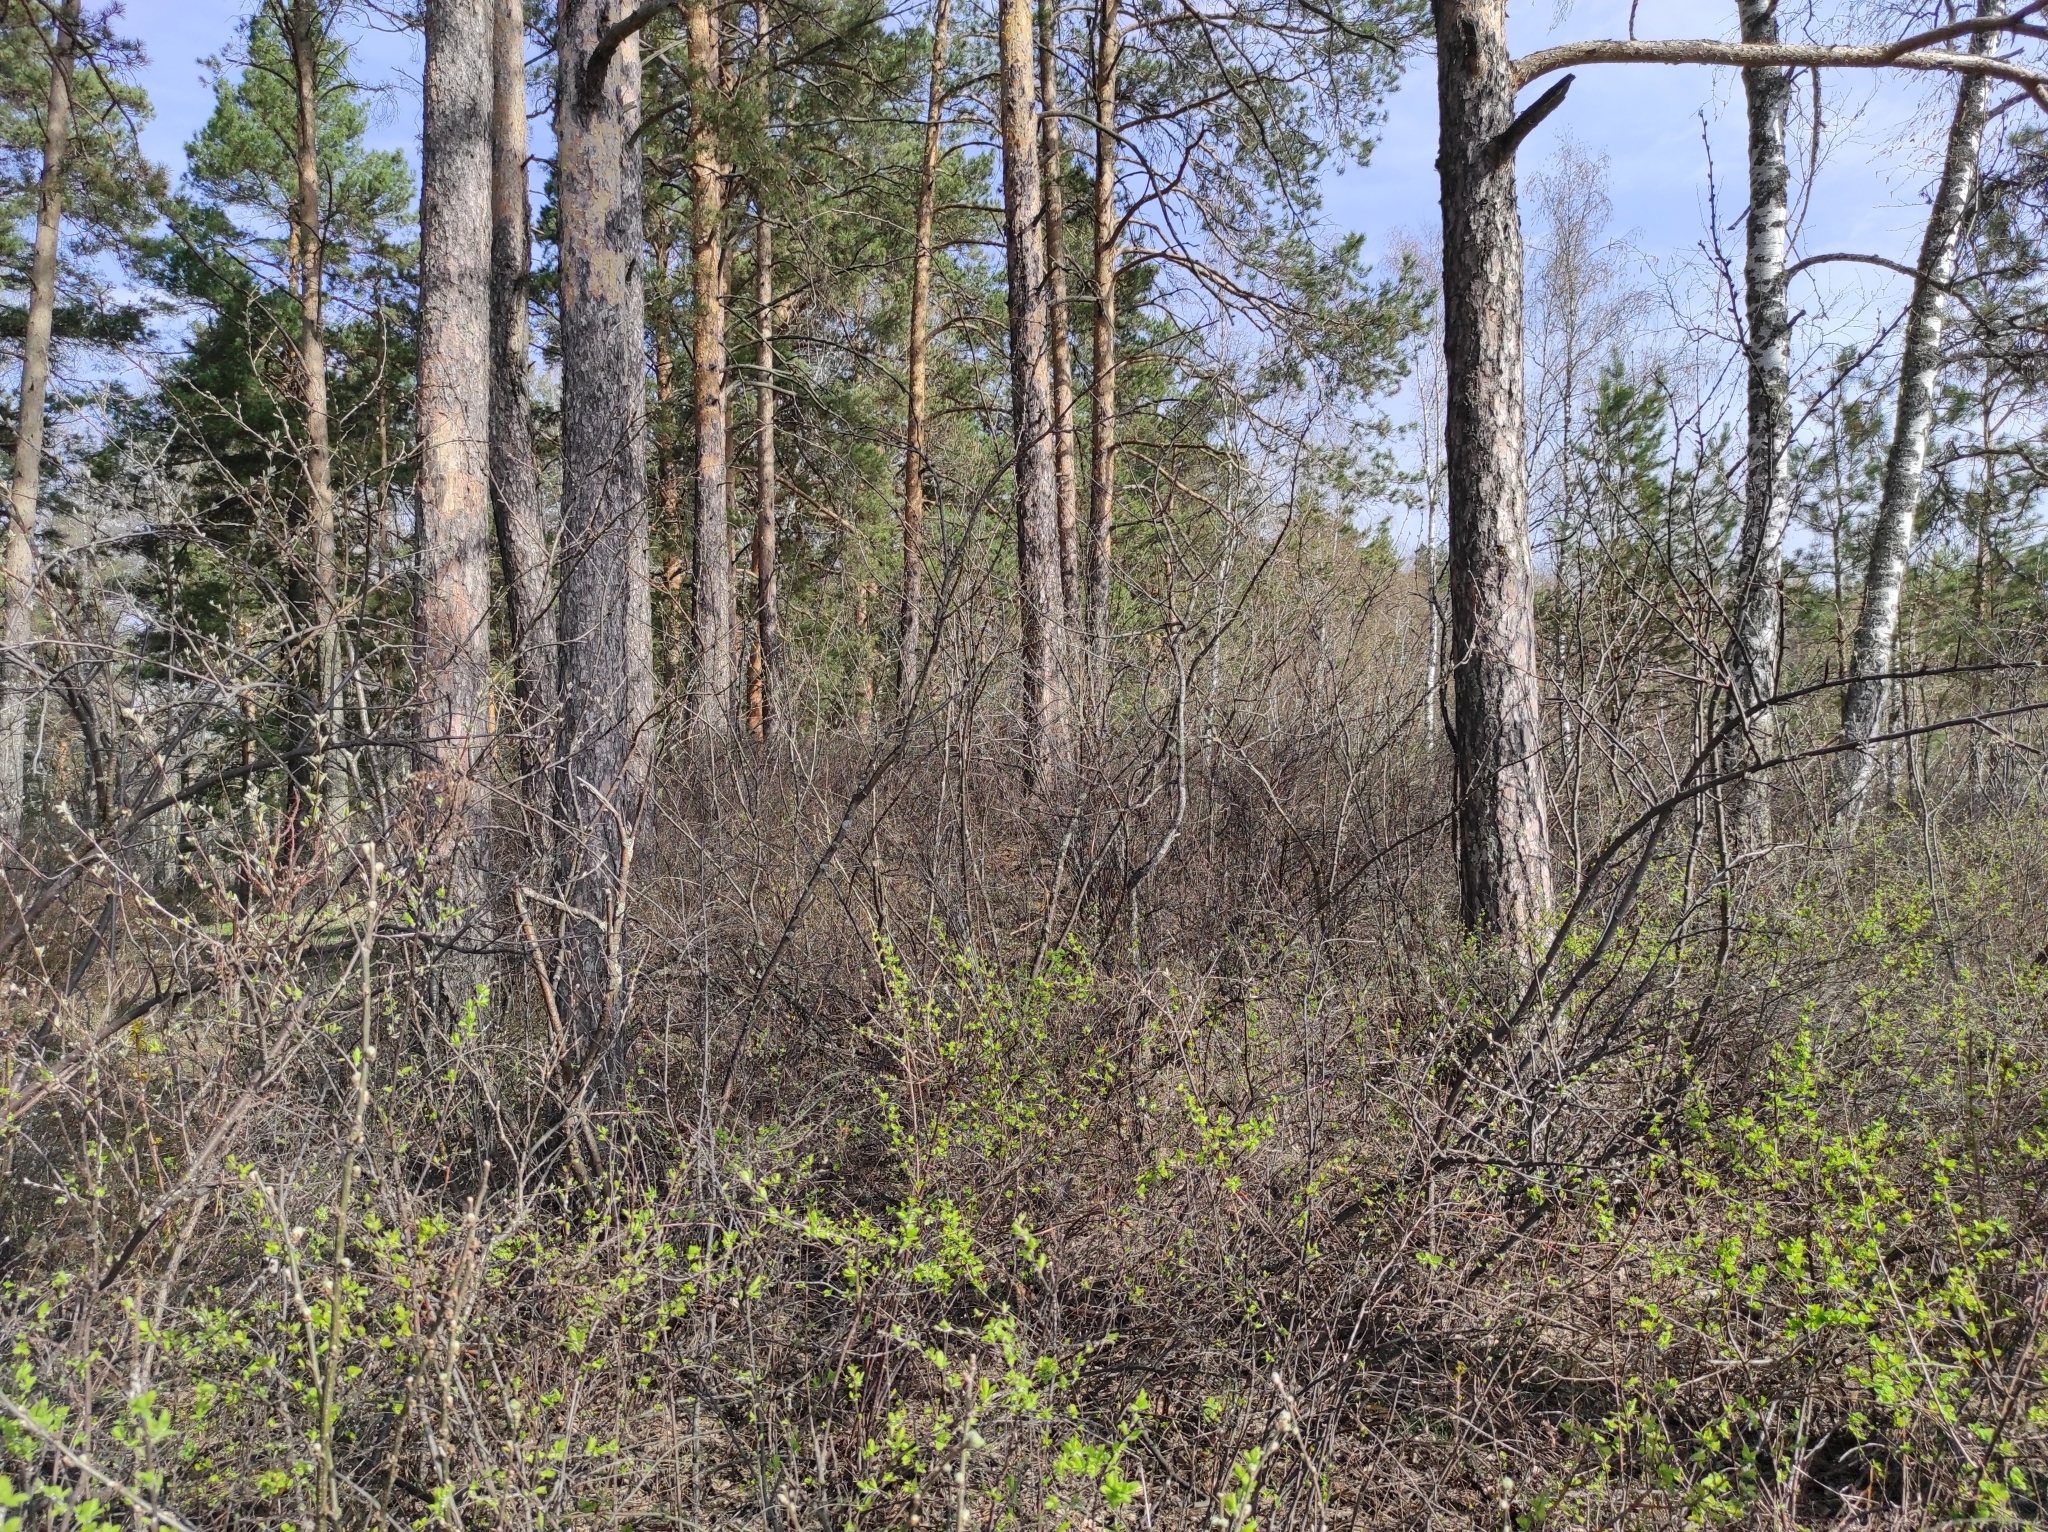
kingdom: Plantae
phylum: Tracheophyta
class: Pinopsida
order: Pinales
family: Pinaceae
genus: Pinus
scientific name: Pinus sylvestris
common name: Scots pine
